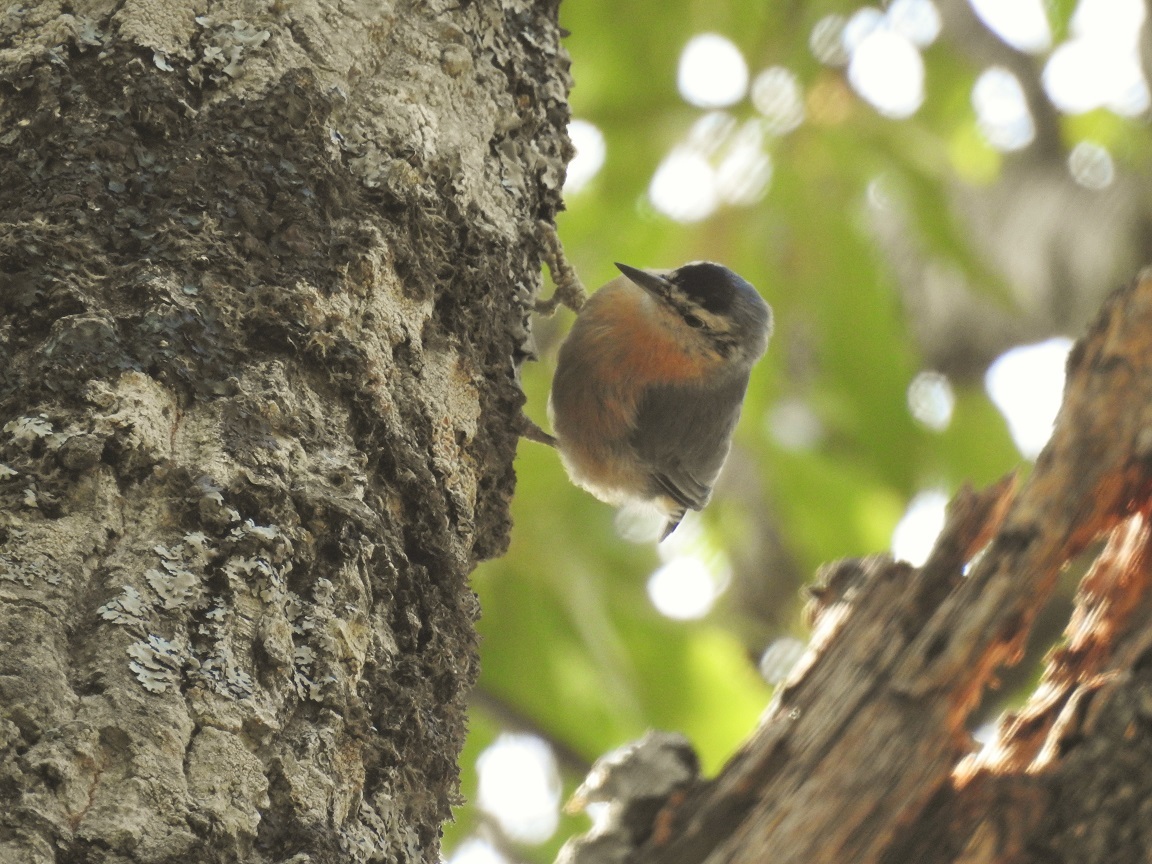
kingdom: Animalia
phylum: Chordata
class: Aves
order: Passeriformes
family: Sittidae
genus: Sitta
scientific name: Sitta ledanti
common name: Algerian nuthatch
